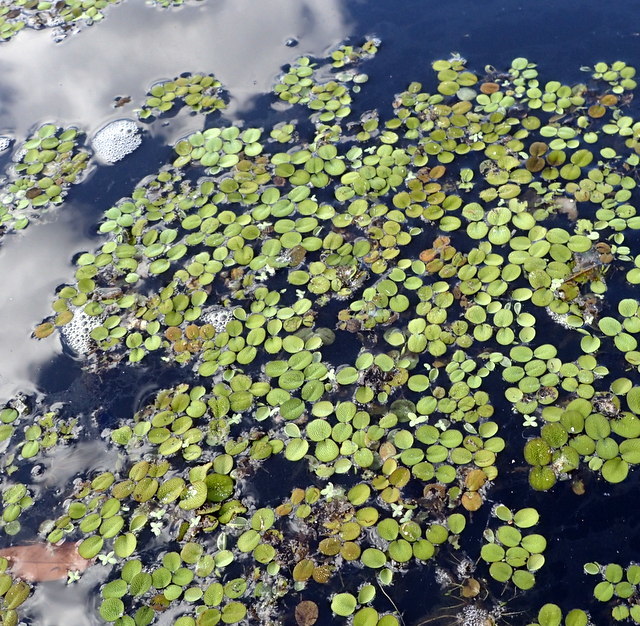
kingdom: Plantae
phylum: Tracheophyta
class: Polypodiopsida
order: Salviniales
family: Salviniaceae
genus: Salvinia
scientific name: Salvinia minima
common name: Water spangles
